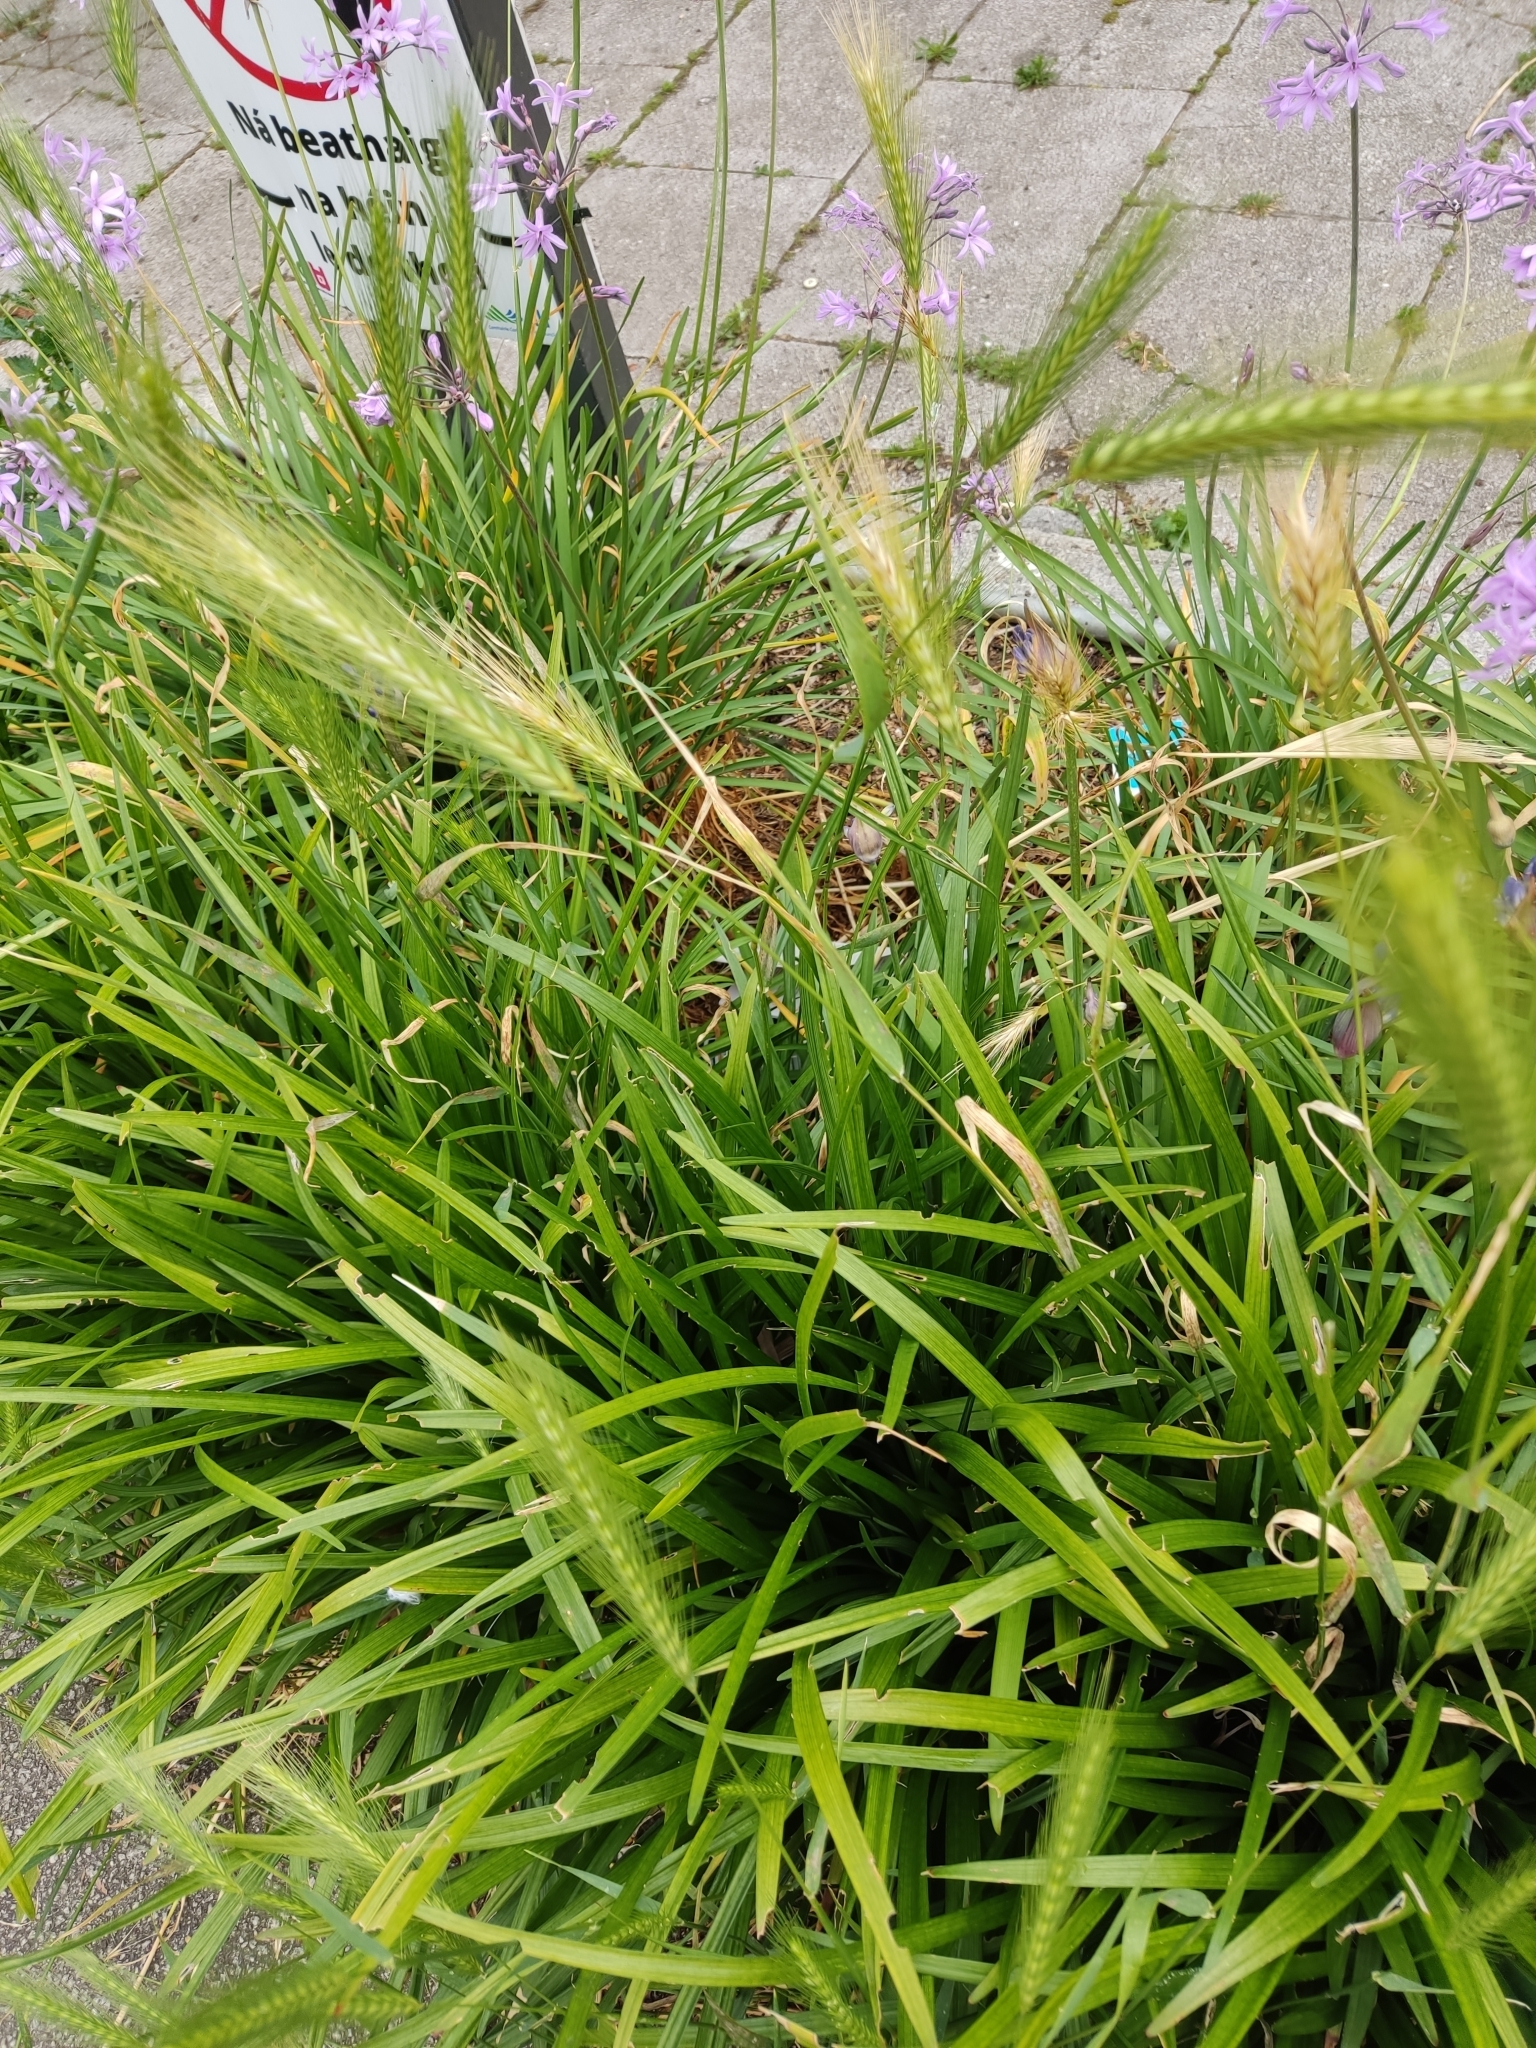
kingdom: Plantae
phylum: Tracheophyta
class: Liliopsida
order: Poales
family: Poaceae
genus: Hordeum
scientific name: Hordeum murinum
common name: Wall barley
